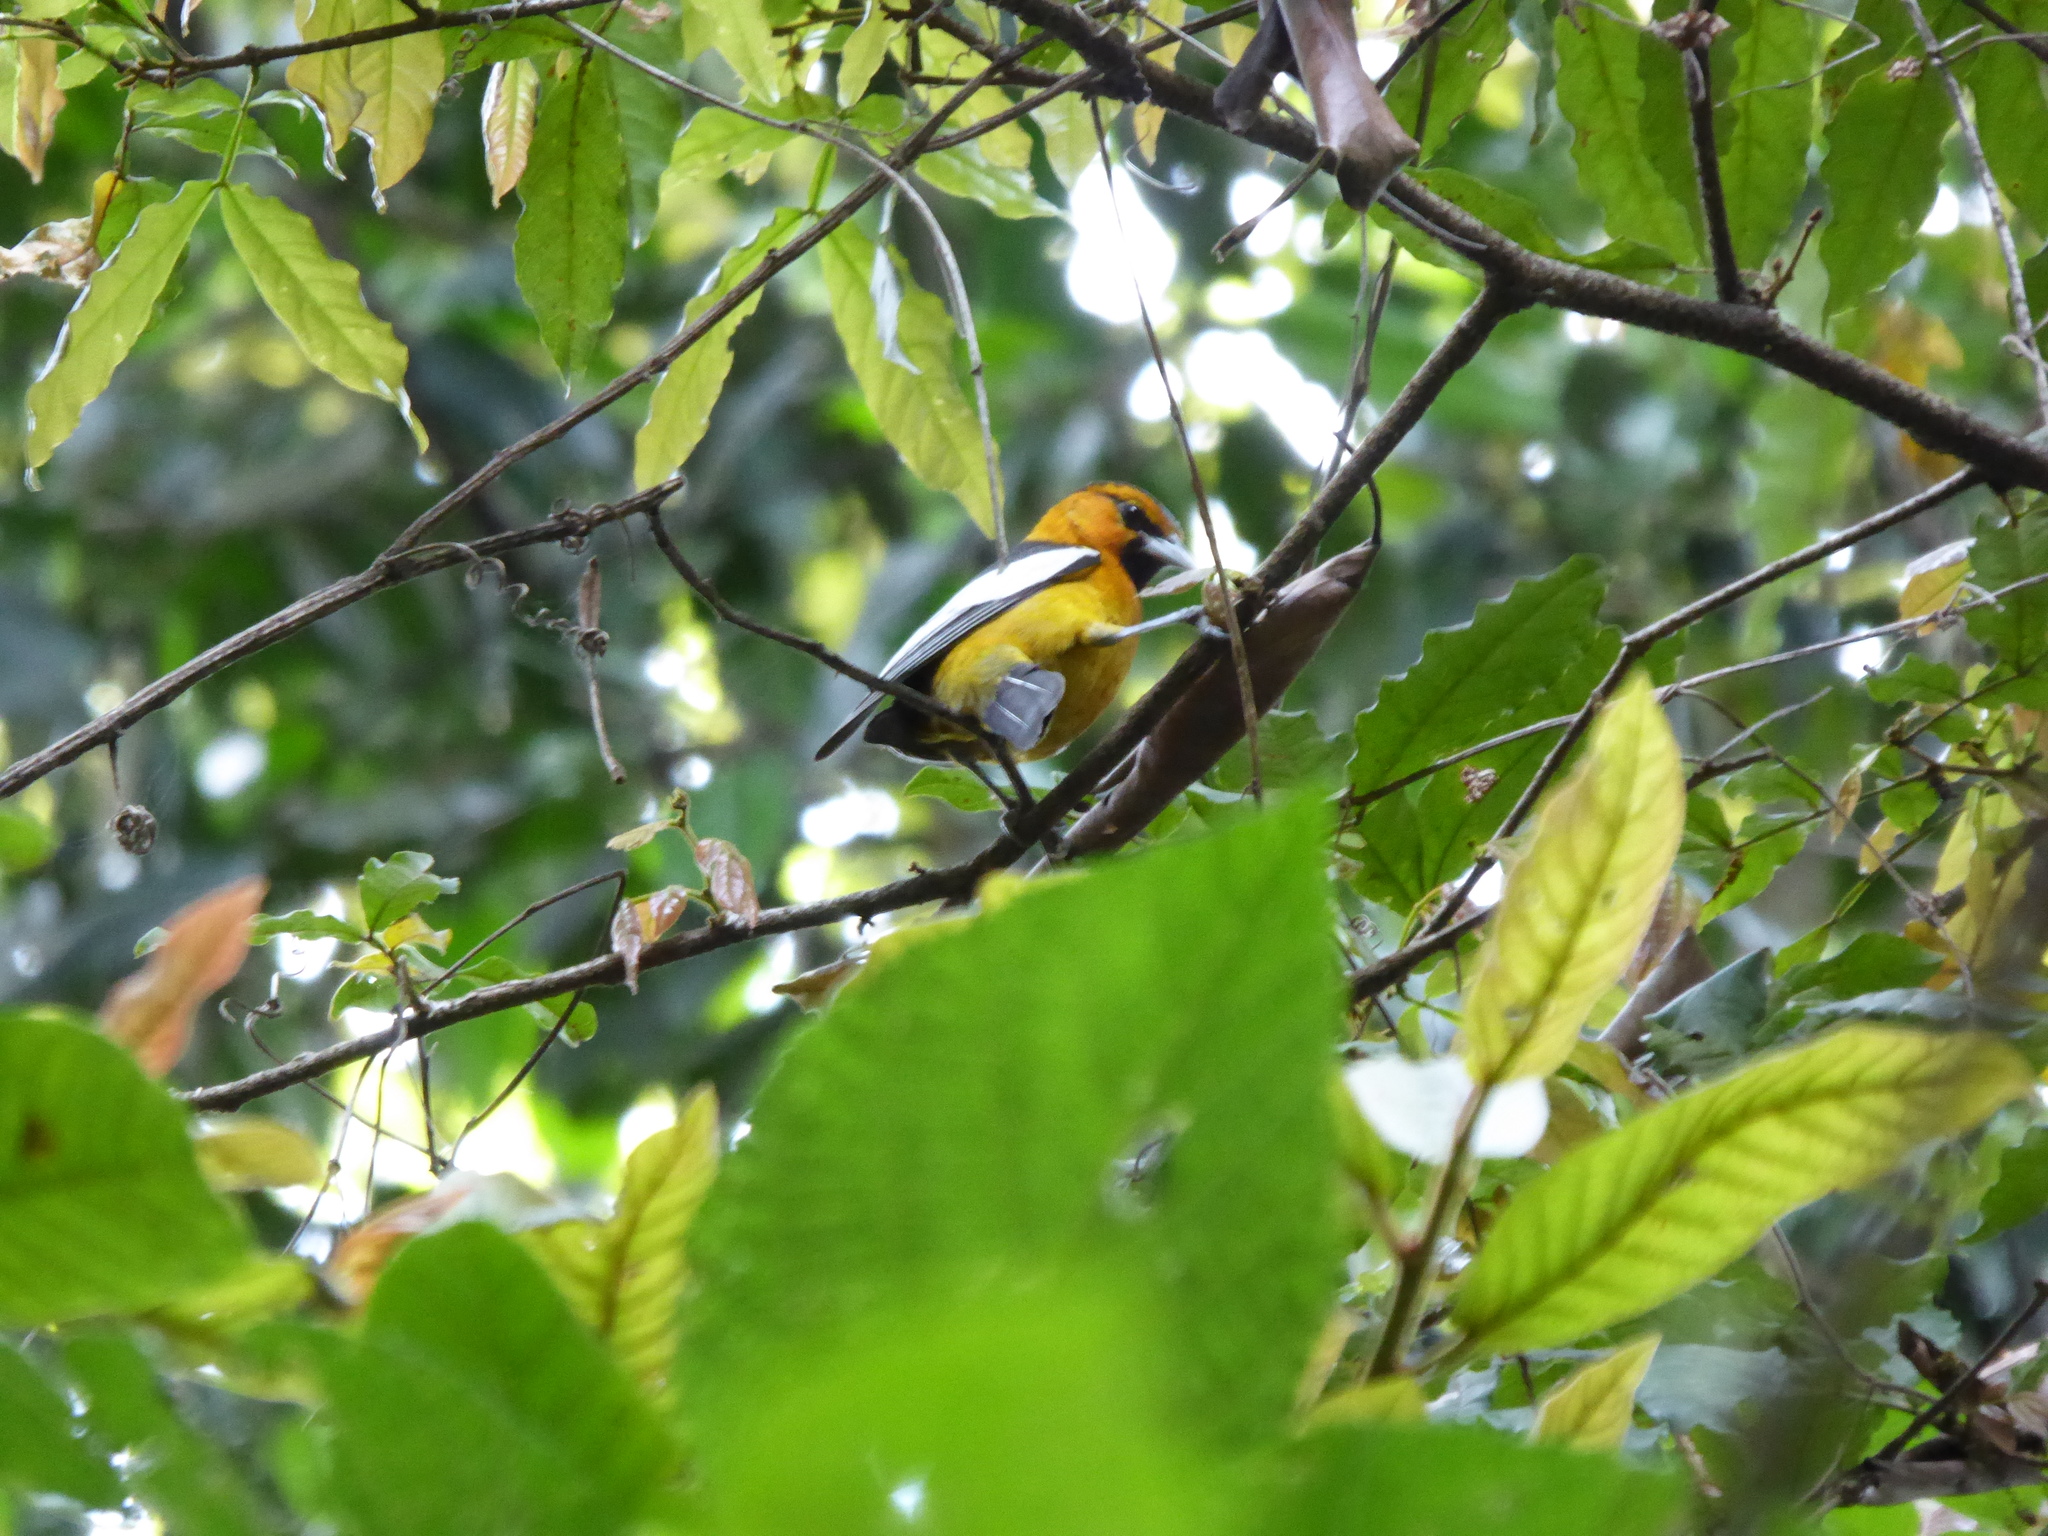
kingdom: Animalia
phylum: Chordata
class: Aves
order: Passeriformes
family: Icteridae
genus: Icterus
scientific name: Icterus bullockii
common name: Bullock's oriole
